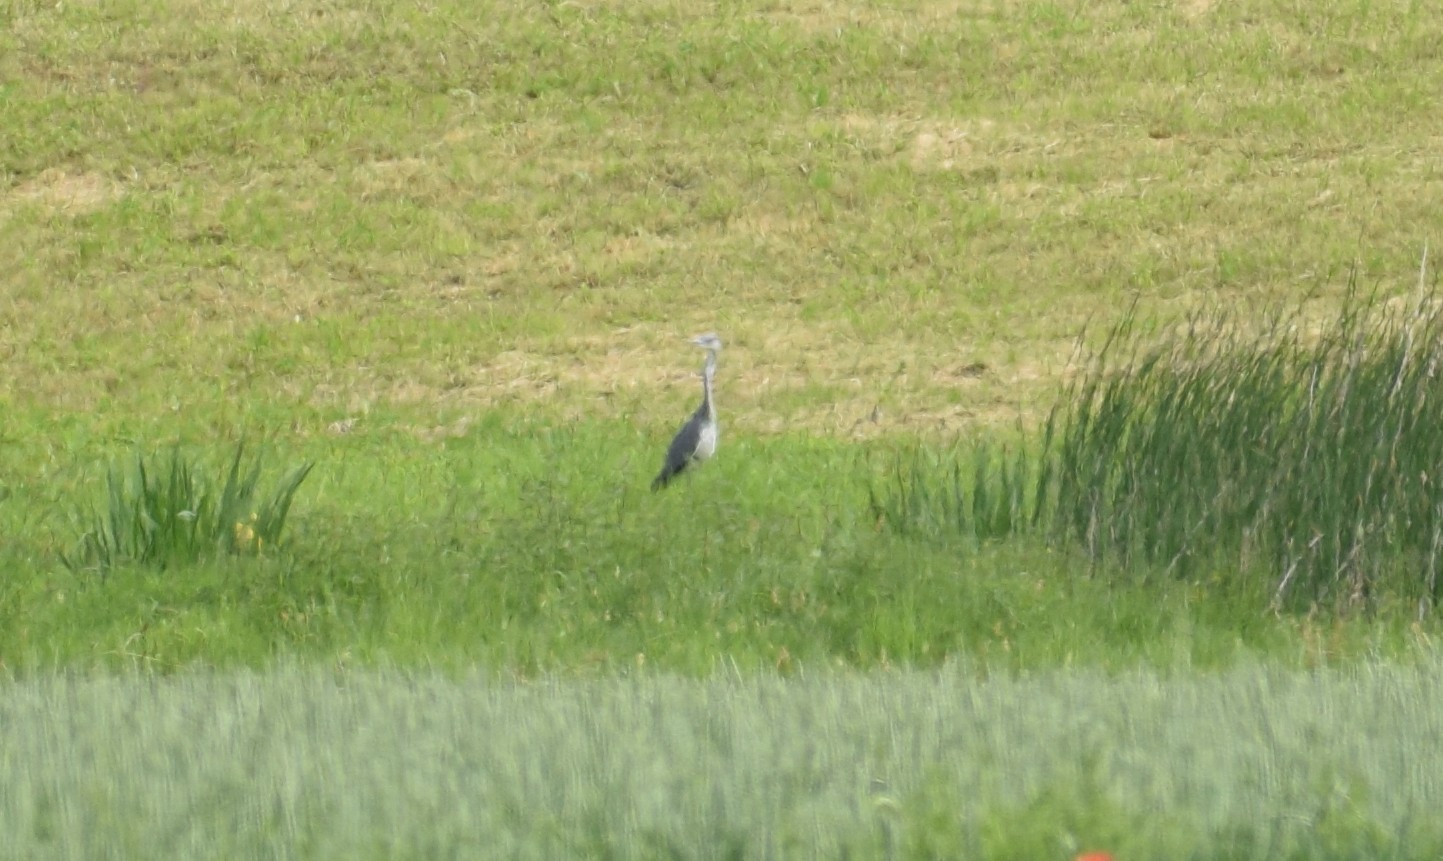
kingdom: Animalia
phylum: Chordata
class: Aves
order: Pelecaniformes
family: Ardeidae
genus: Ardea
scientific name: Ardea cinerea
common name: Grey heron
